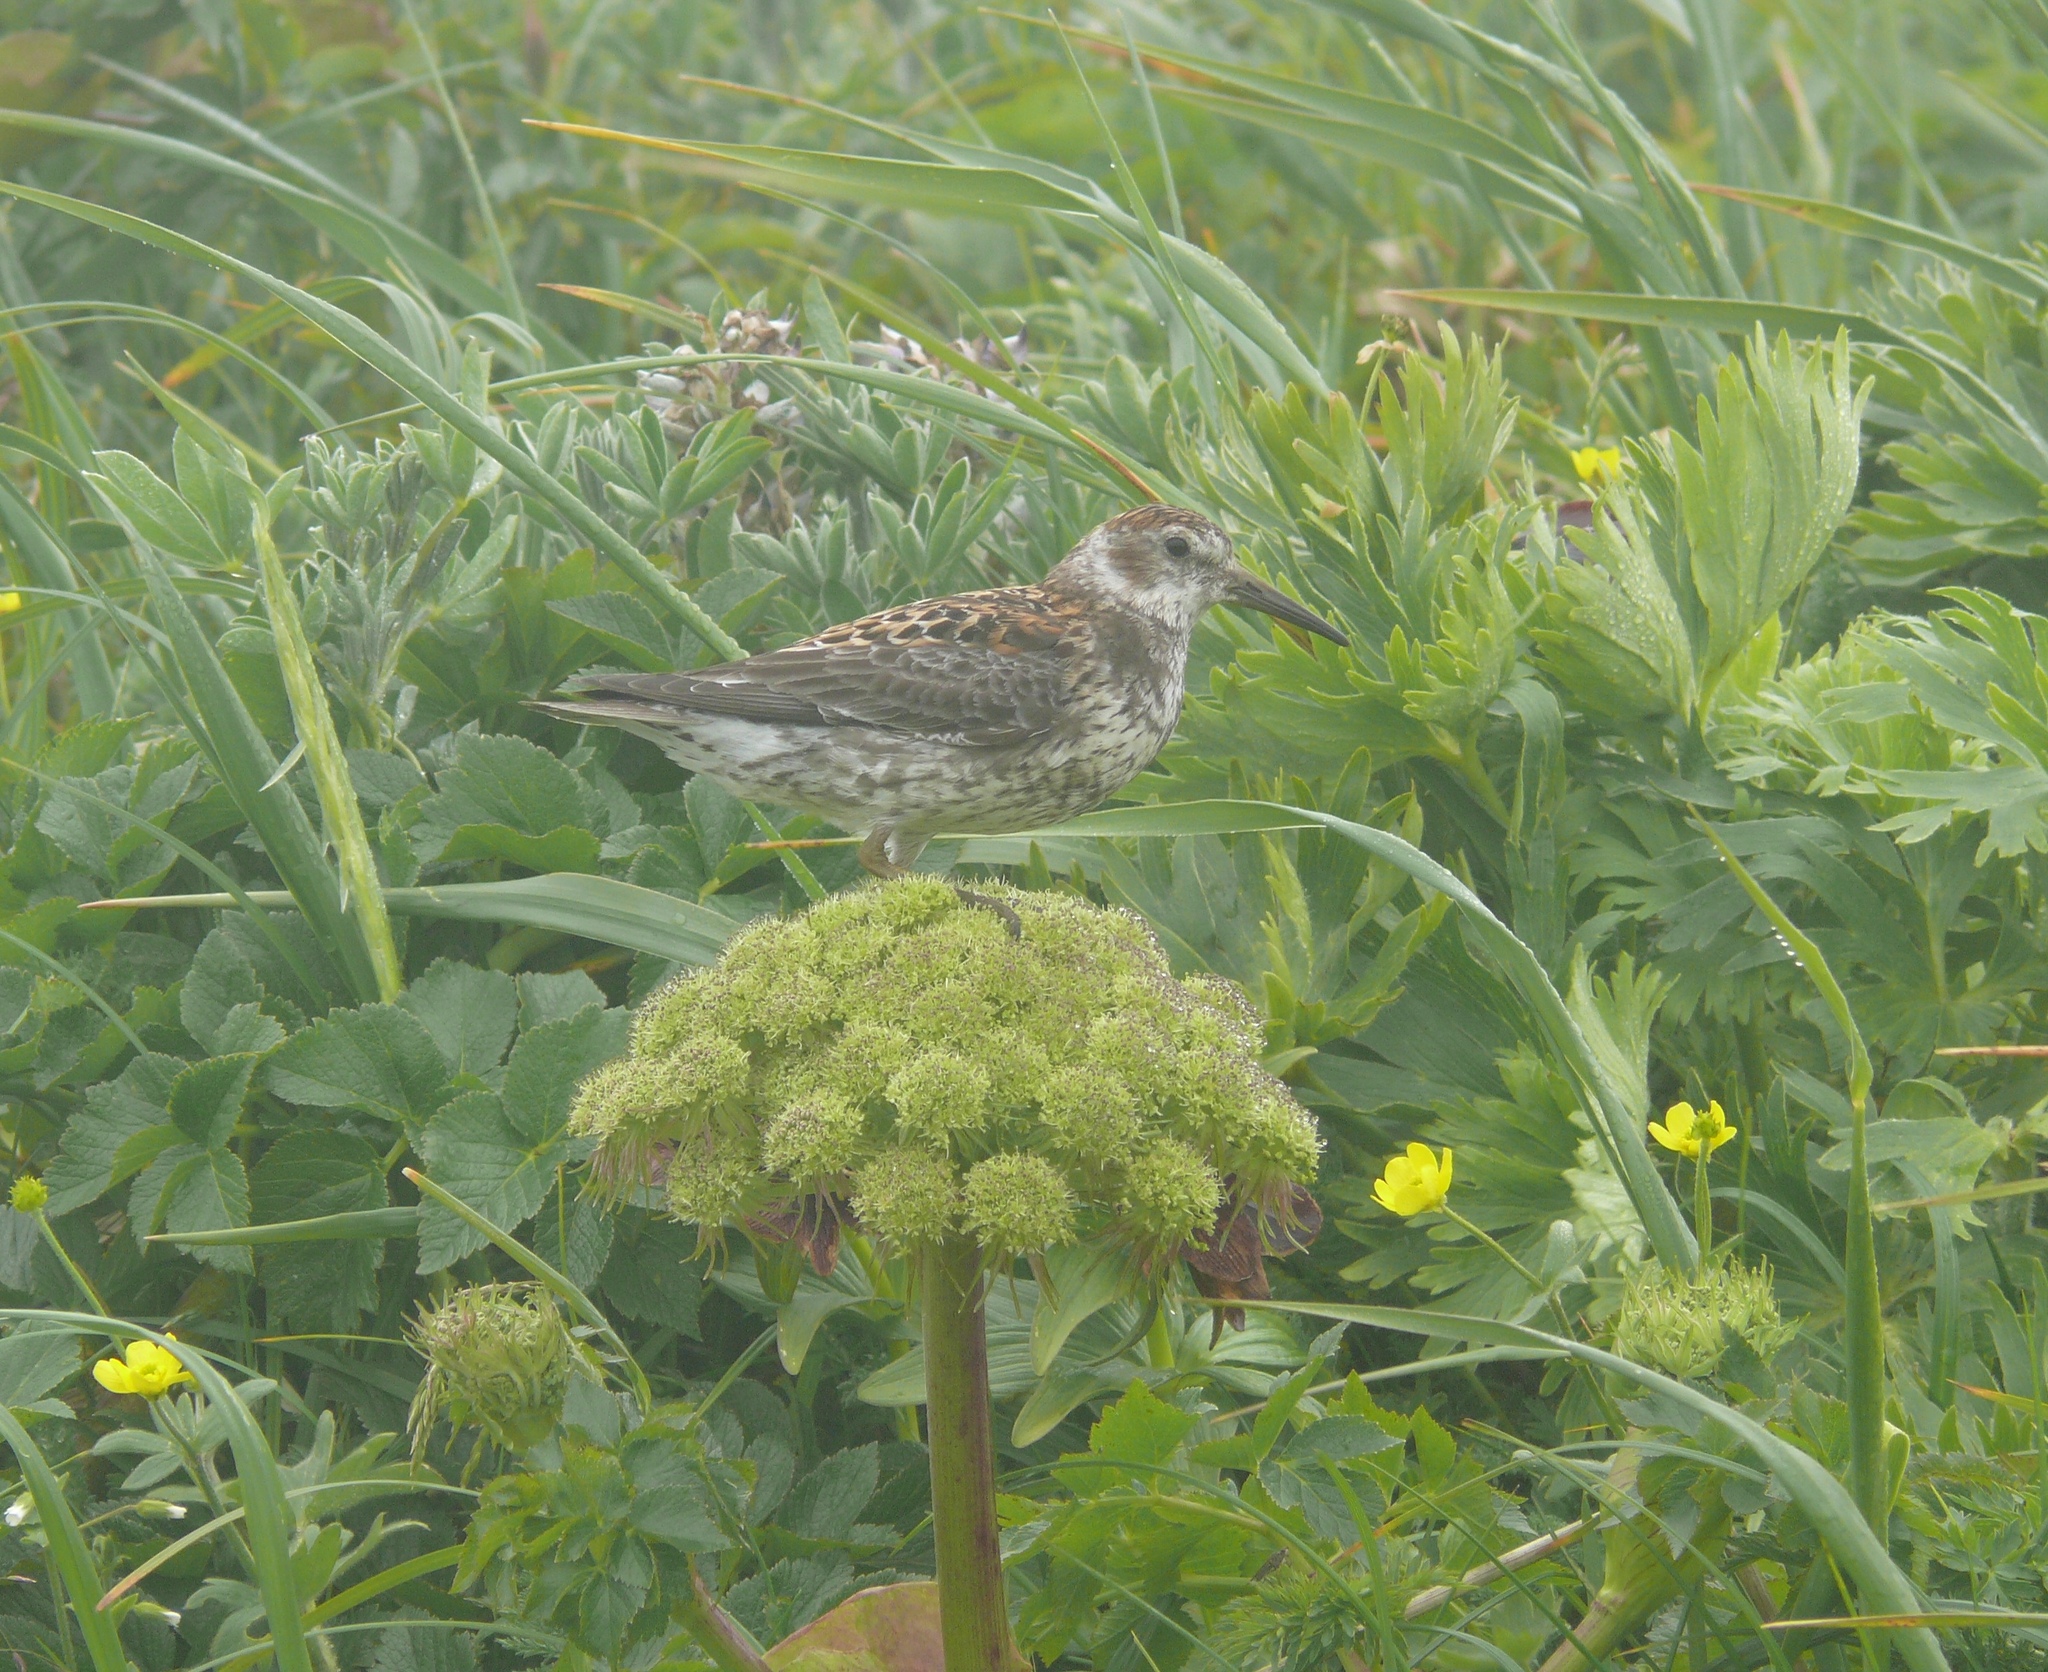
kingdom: Animalia
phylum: Chordata
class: Aves
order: Charadriiformes
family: Scolopacidae
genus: Calidris
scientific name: Calidris ptilocnemis
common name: Rock sandpiper
